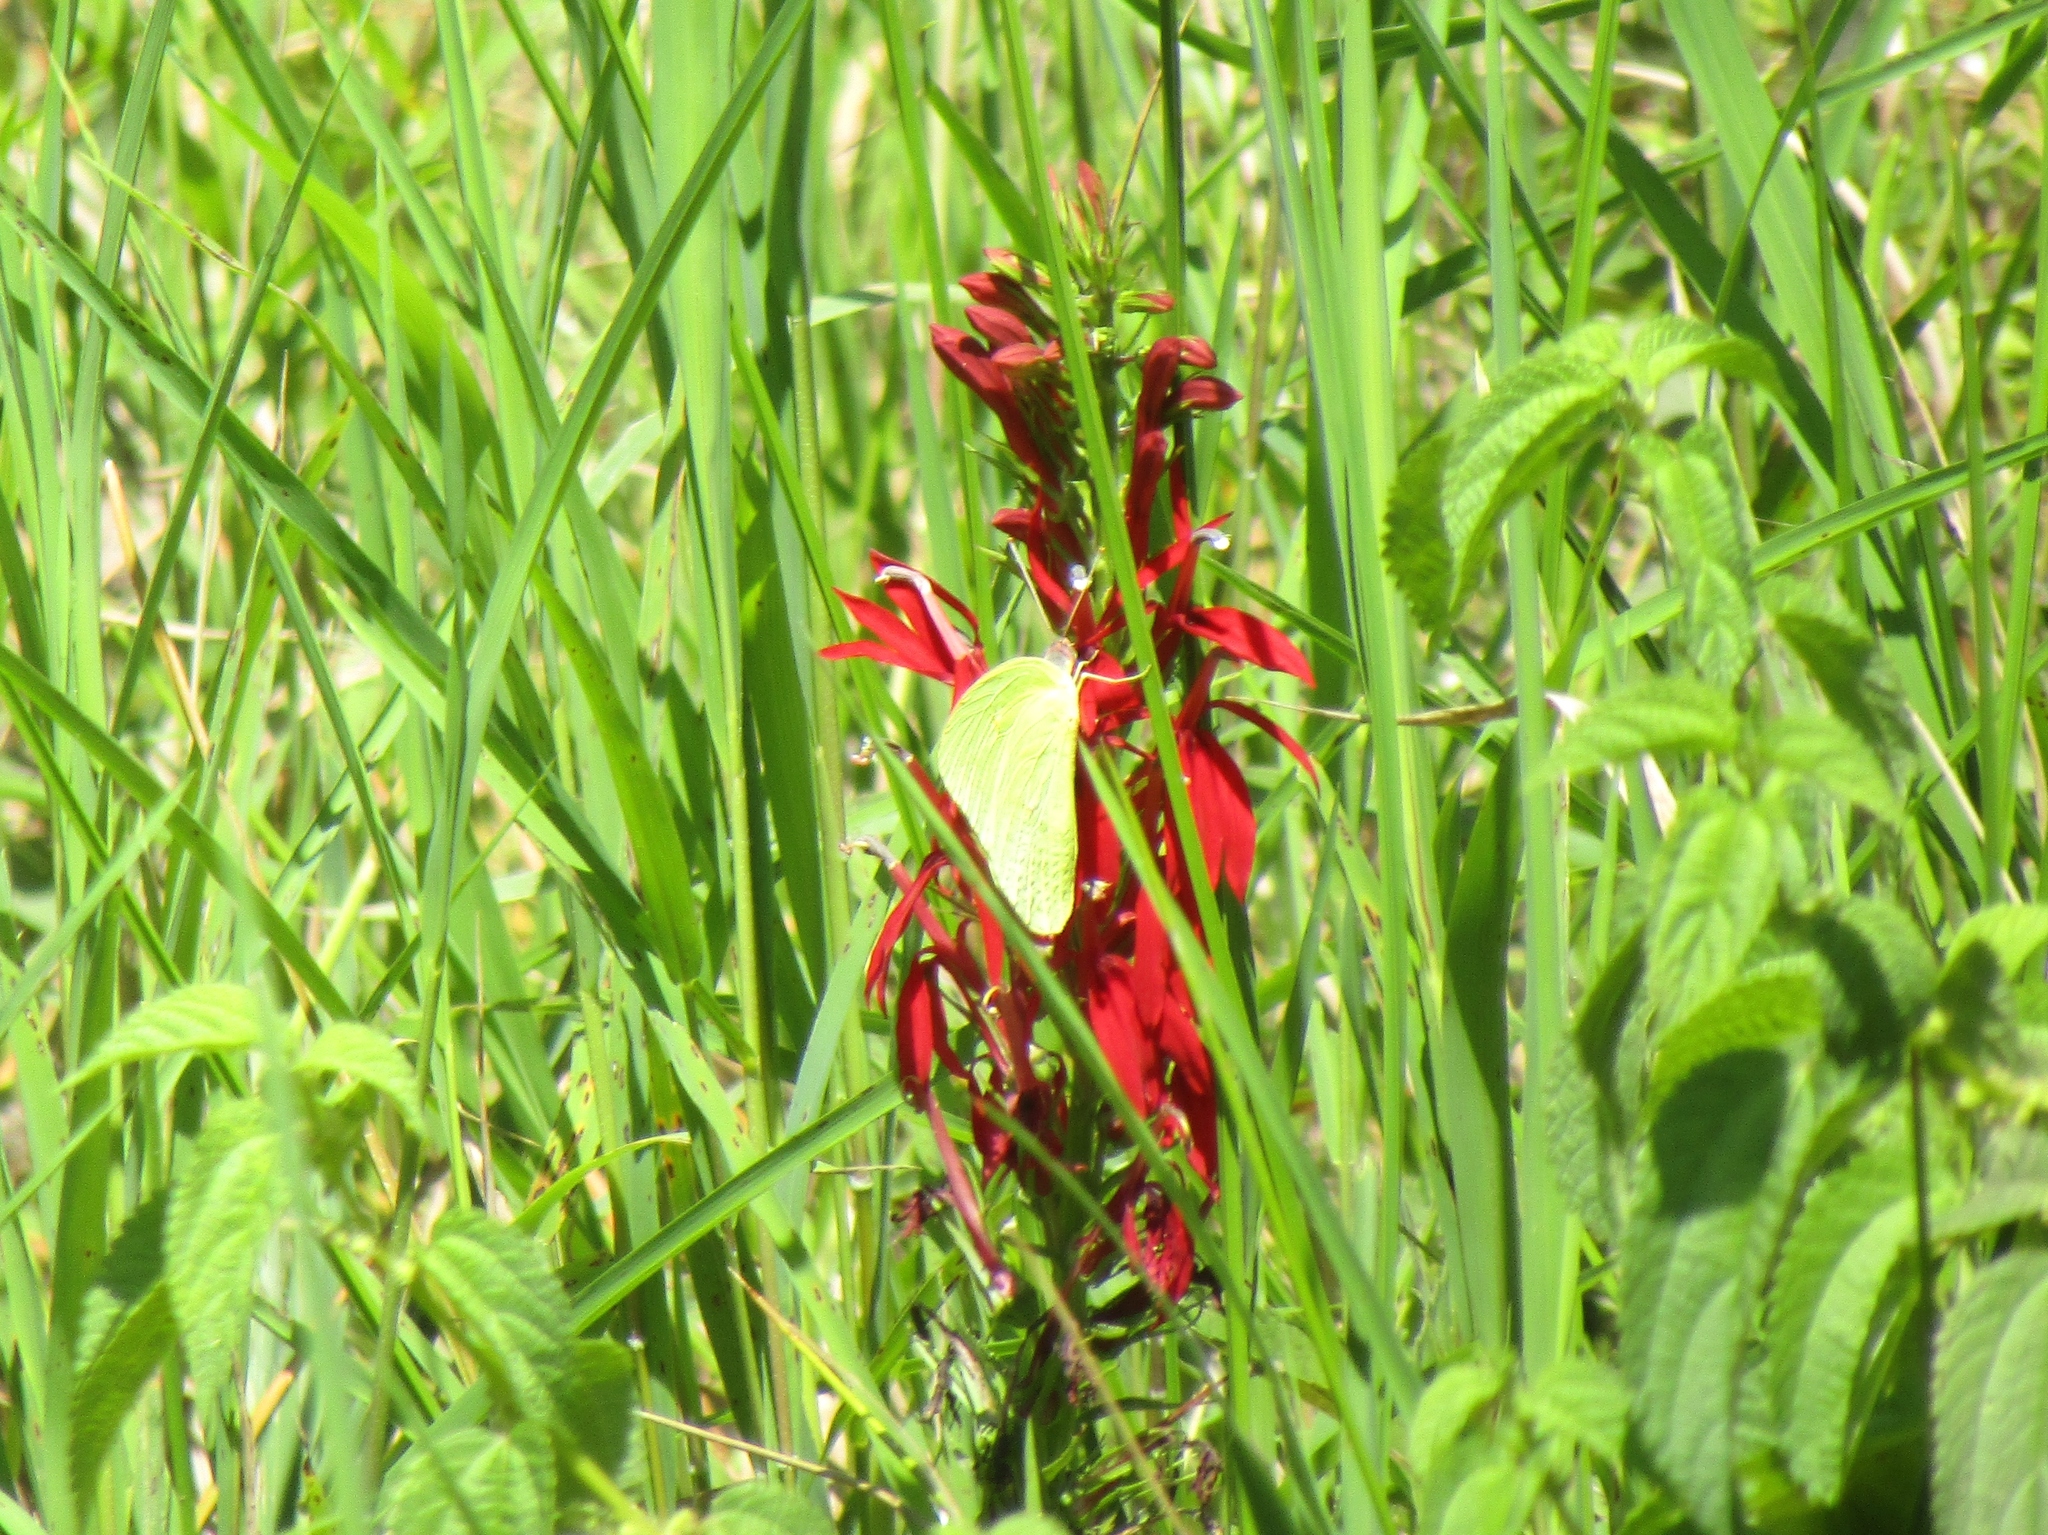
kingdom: Animalia
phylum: Arthropoda
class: Insecta
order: Lepidoptera
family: Pieridae
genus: Phoebis
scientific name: Phoebis sennae
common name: Cloudless sulphur
